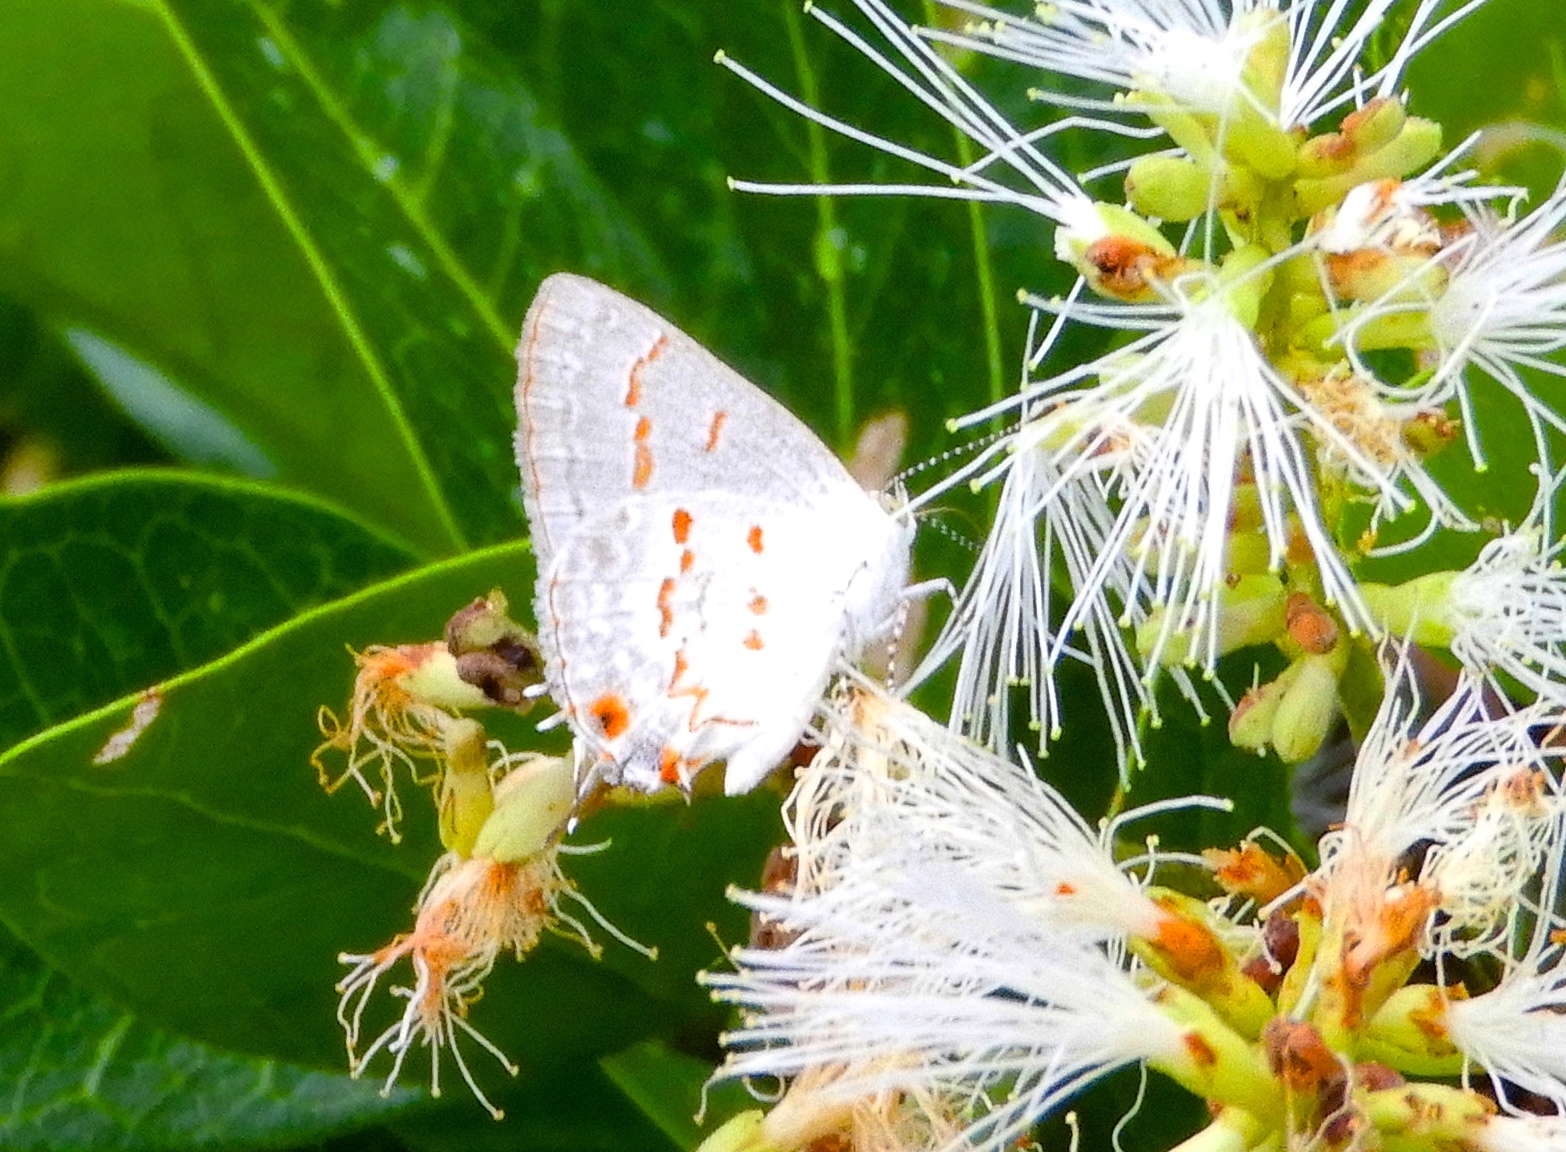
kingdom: Animalia
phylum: Arthropoda
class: Insecta
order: Lepidoptera
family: Lycaenidae
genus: Ministrymon
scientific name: Ministrymon clytie
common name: Clytie ministreak
